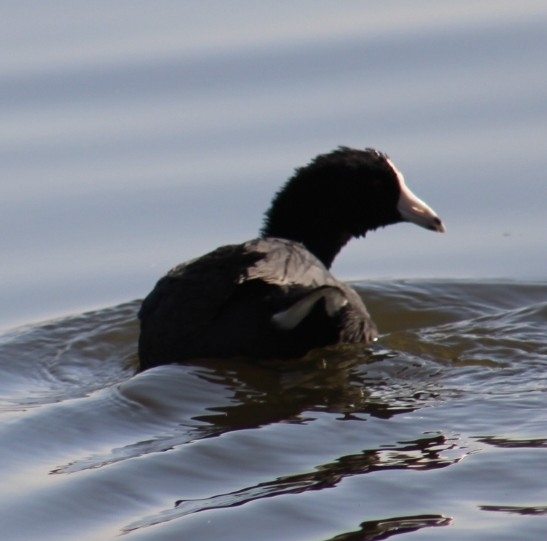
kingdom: Animalia
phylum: Chordata
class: Aves
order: Gruiformes
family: Rallidae
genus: Fulica
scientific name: Fulica americana
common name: American coot
